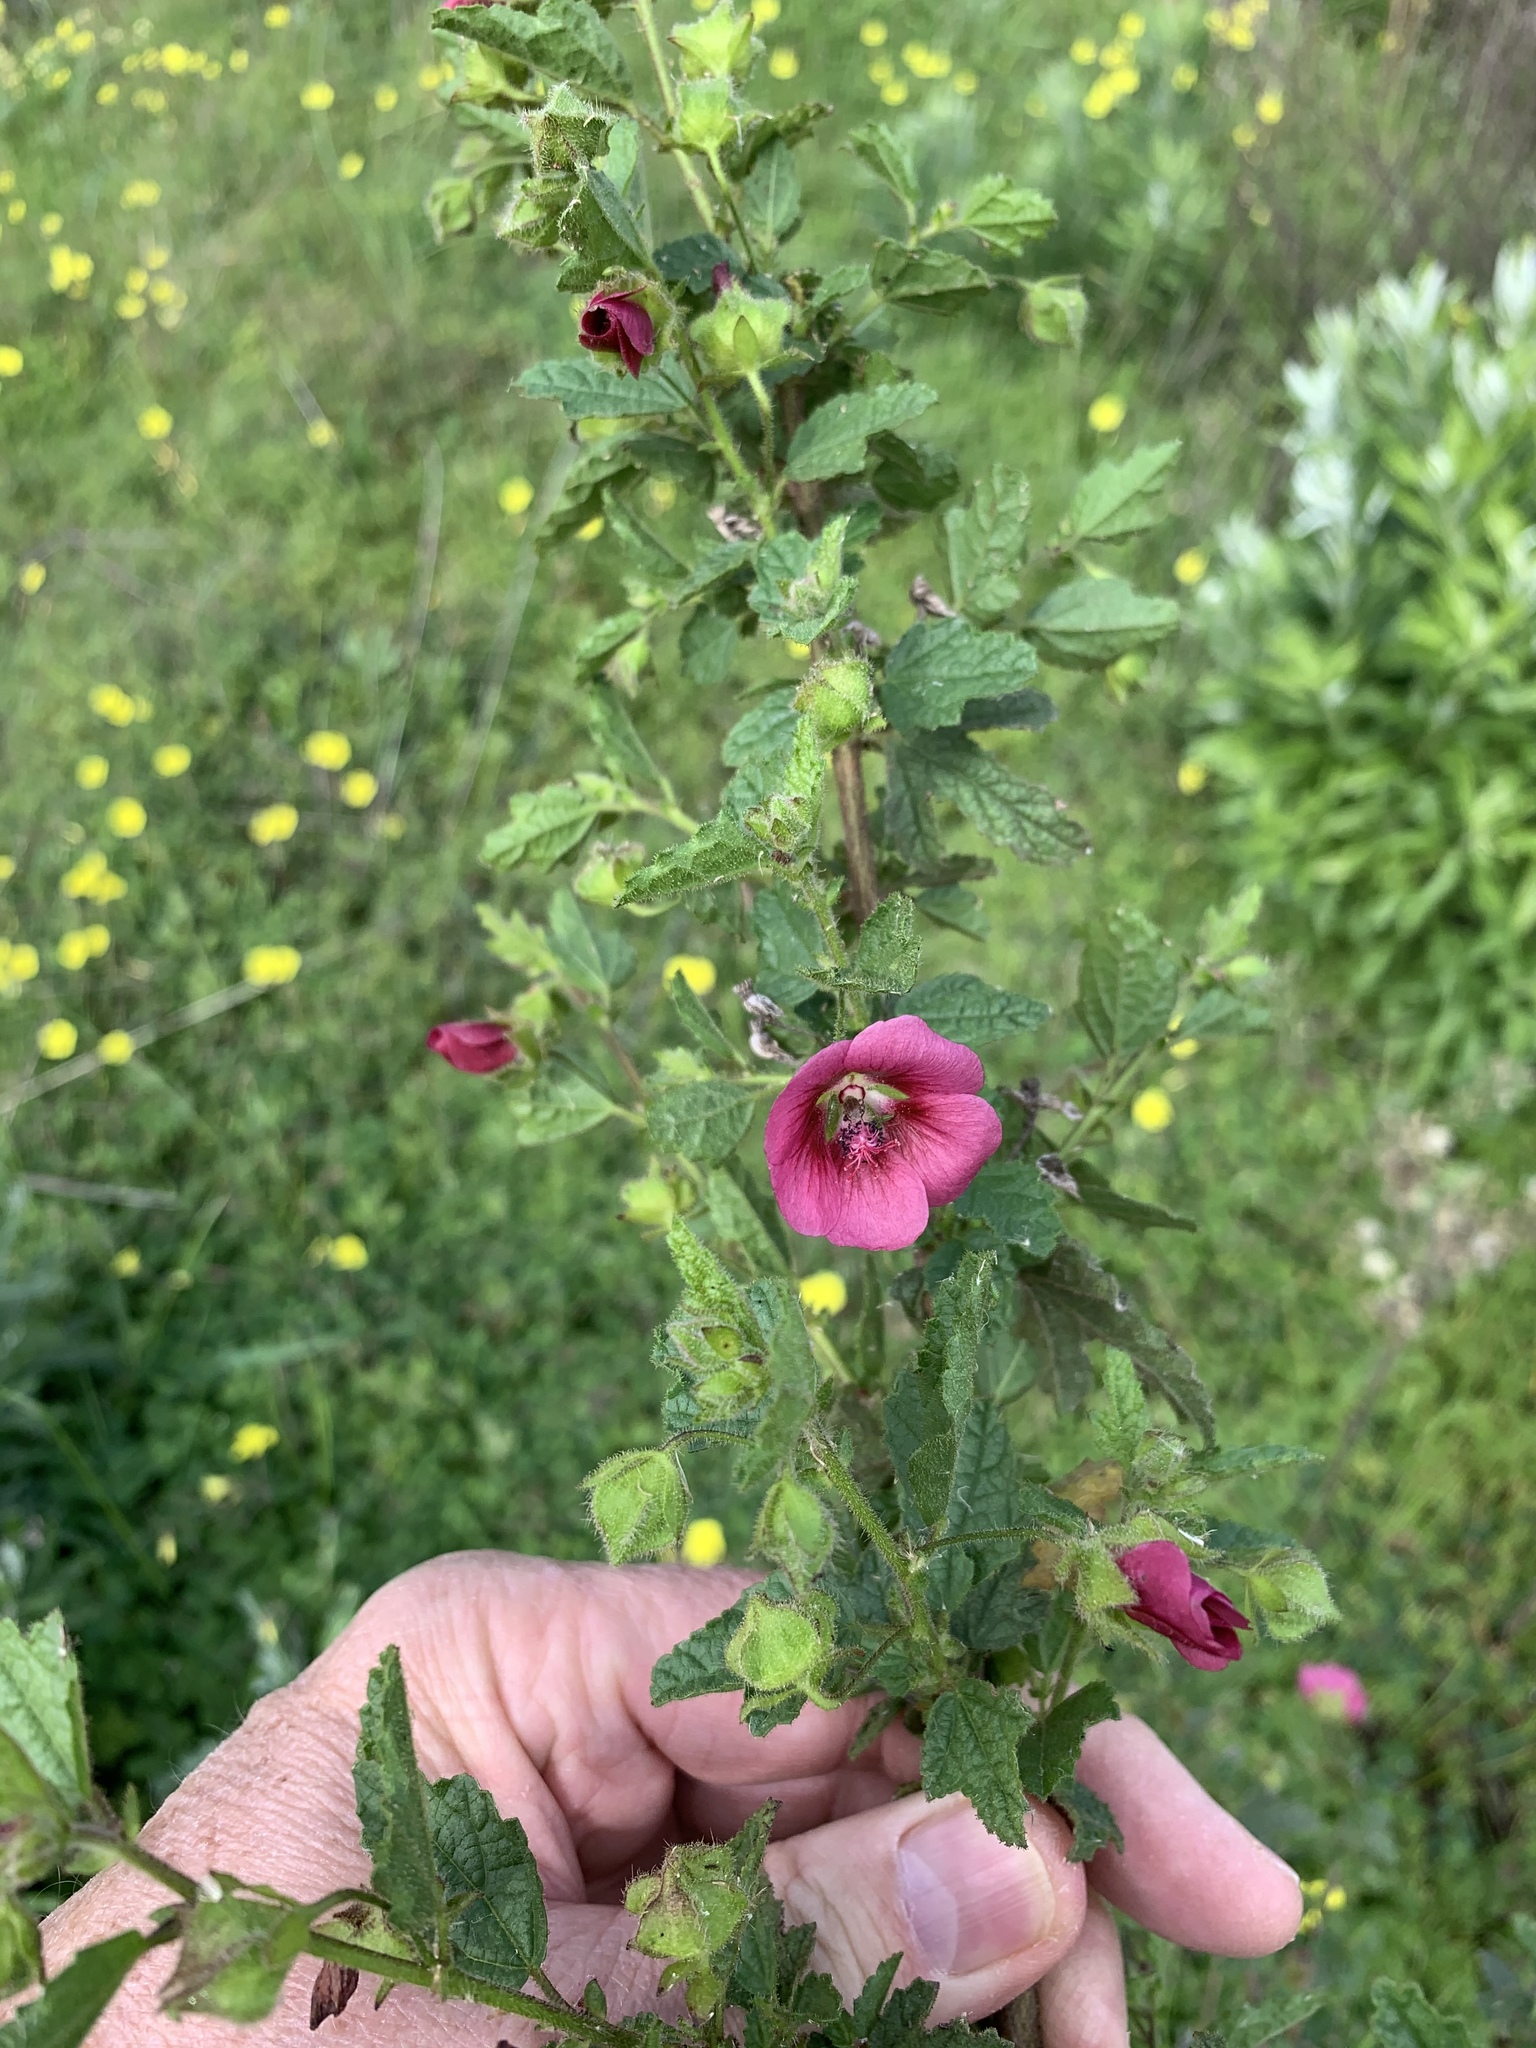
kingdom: Plantae
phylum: Tracheophyta
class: Magnoliopsida
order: Malvales
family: Malvaceae
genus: Anisodontea
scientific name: Anisodontea scabrosa
